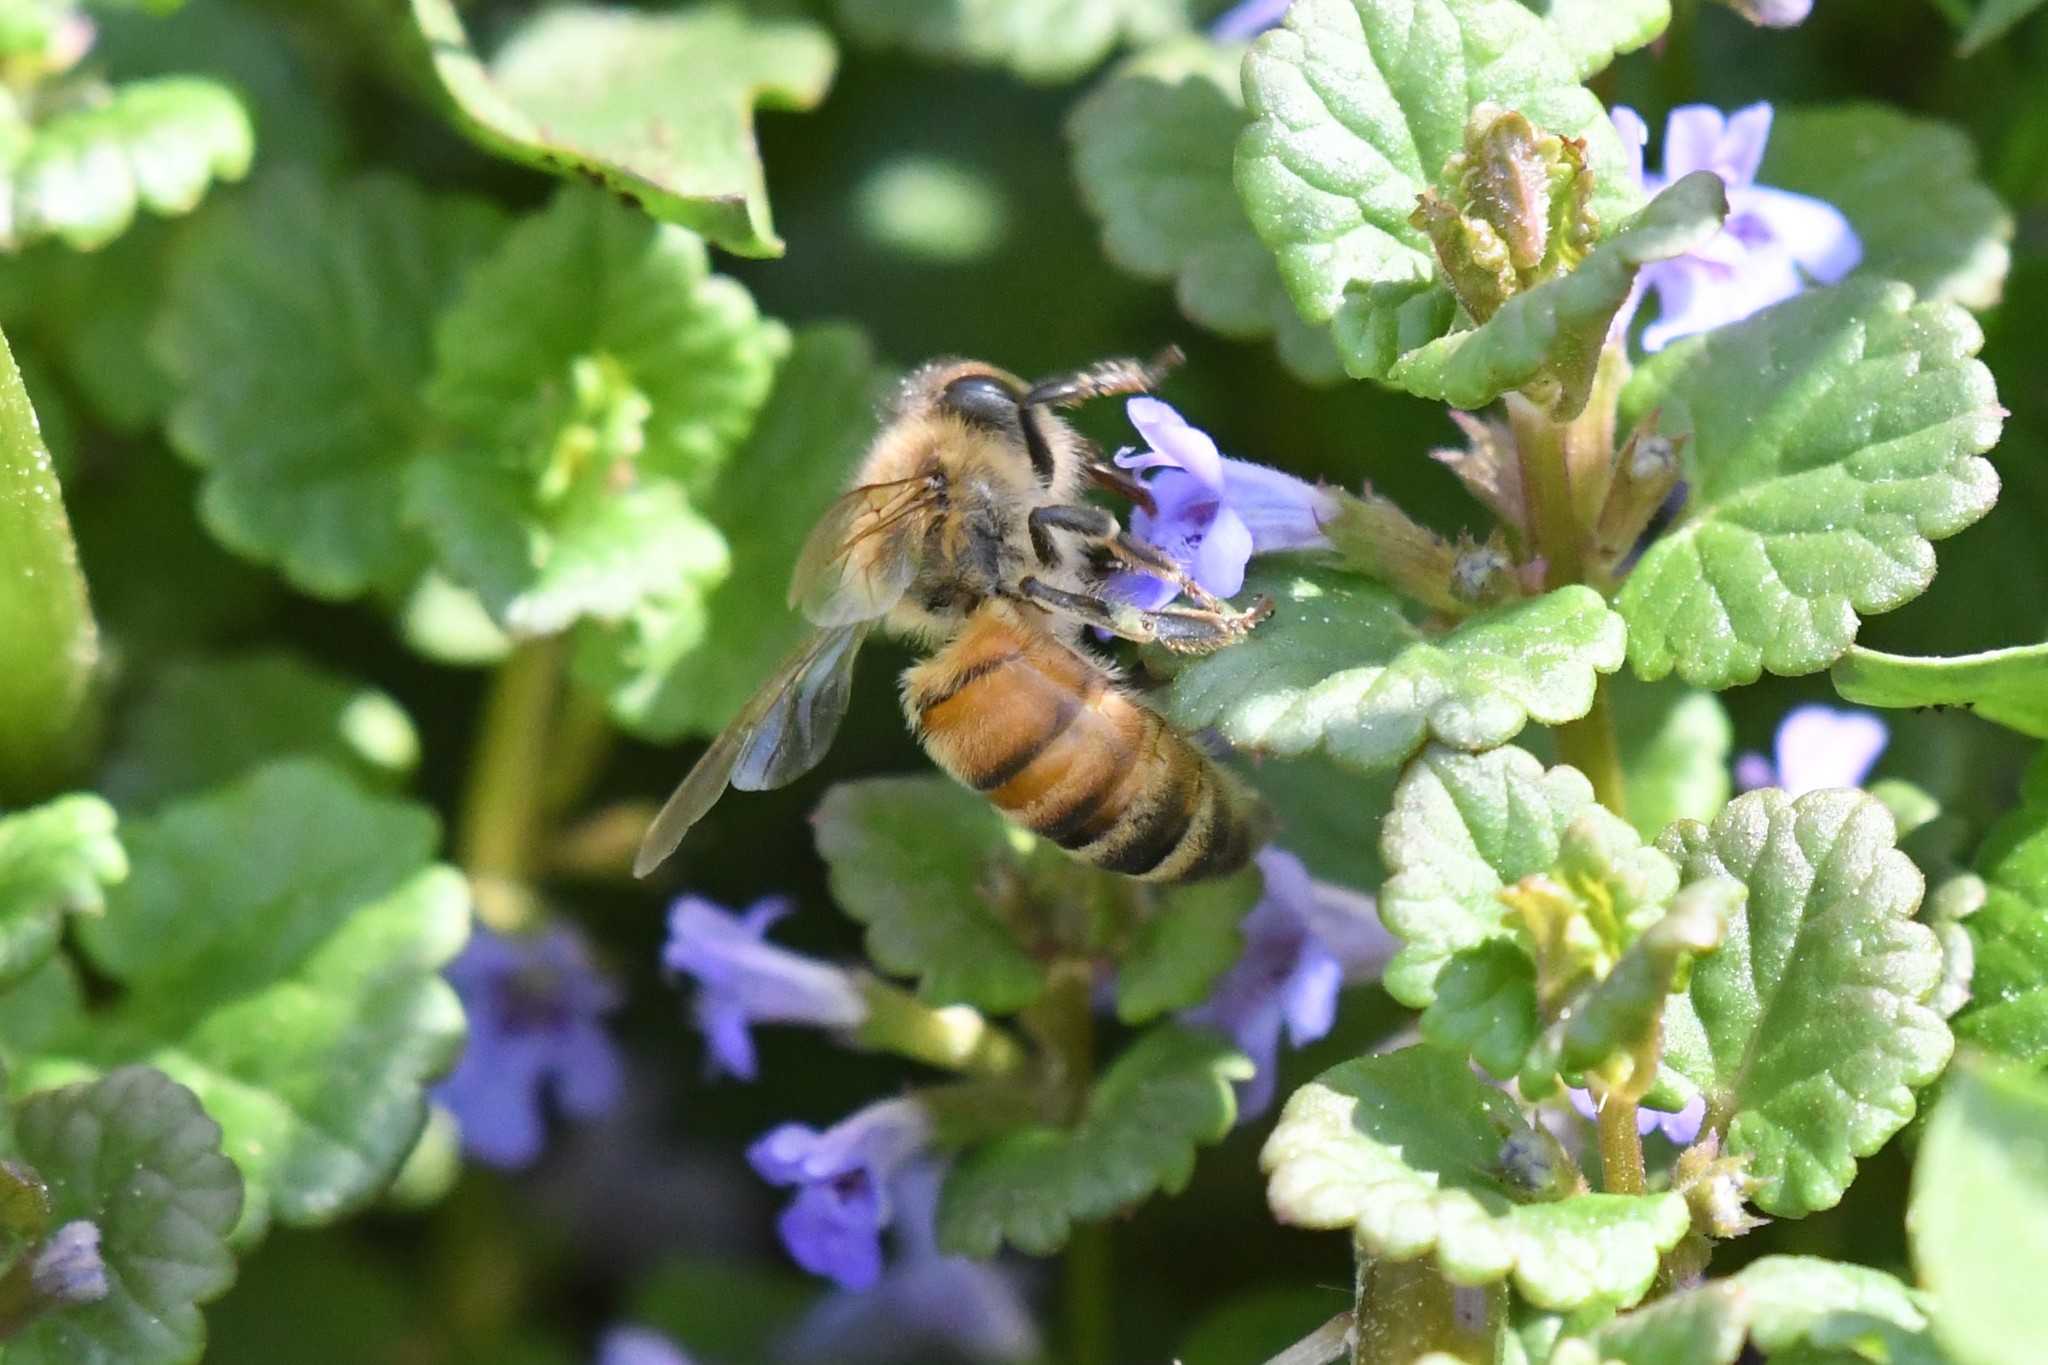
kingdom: Animalia
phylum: Arthropoda
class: Insecta
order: Hymenoptera
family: Apidae
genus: Apis
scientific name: Apis mellifera
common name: Honey bee
